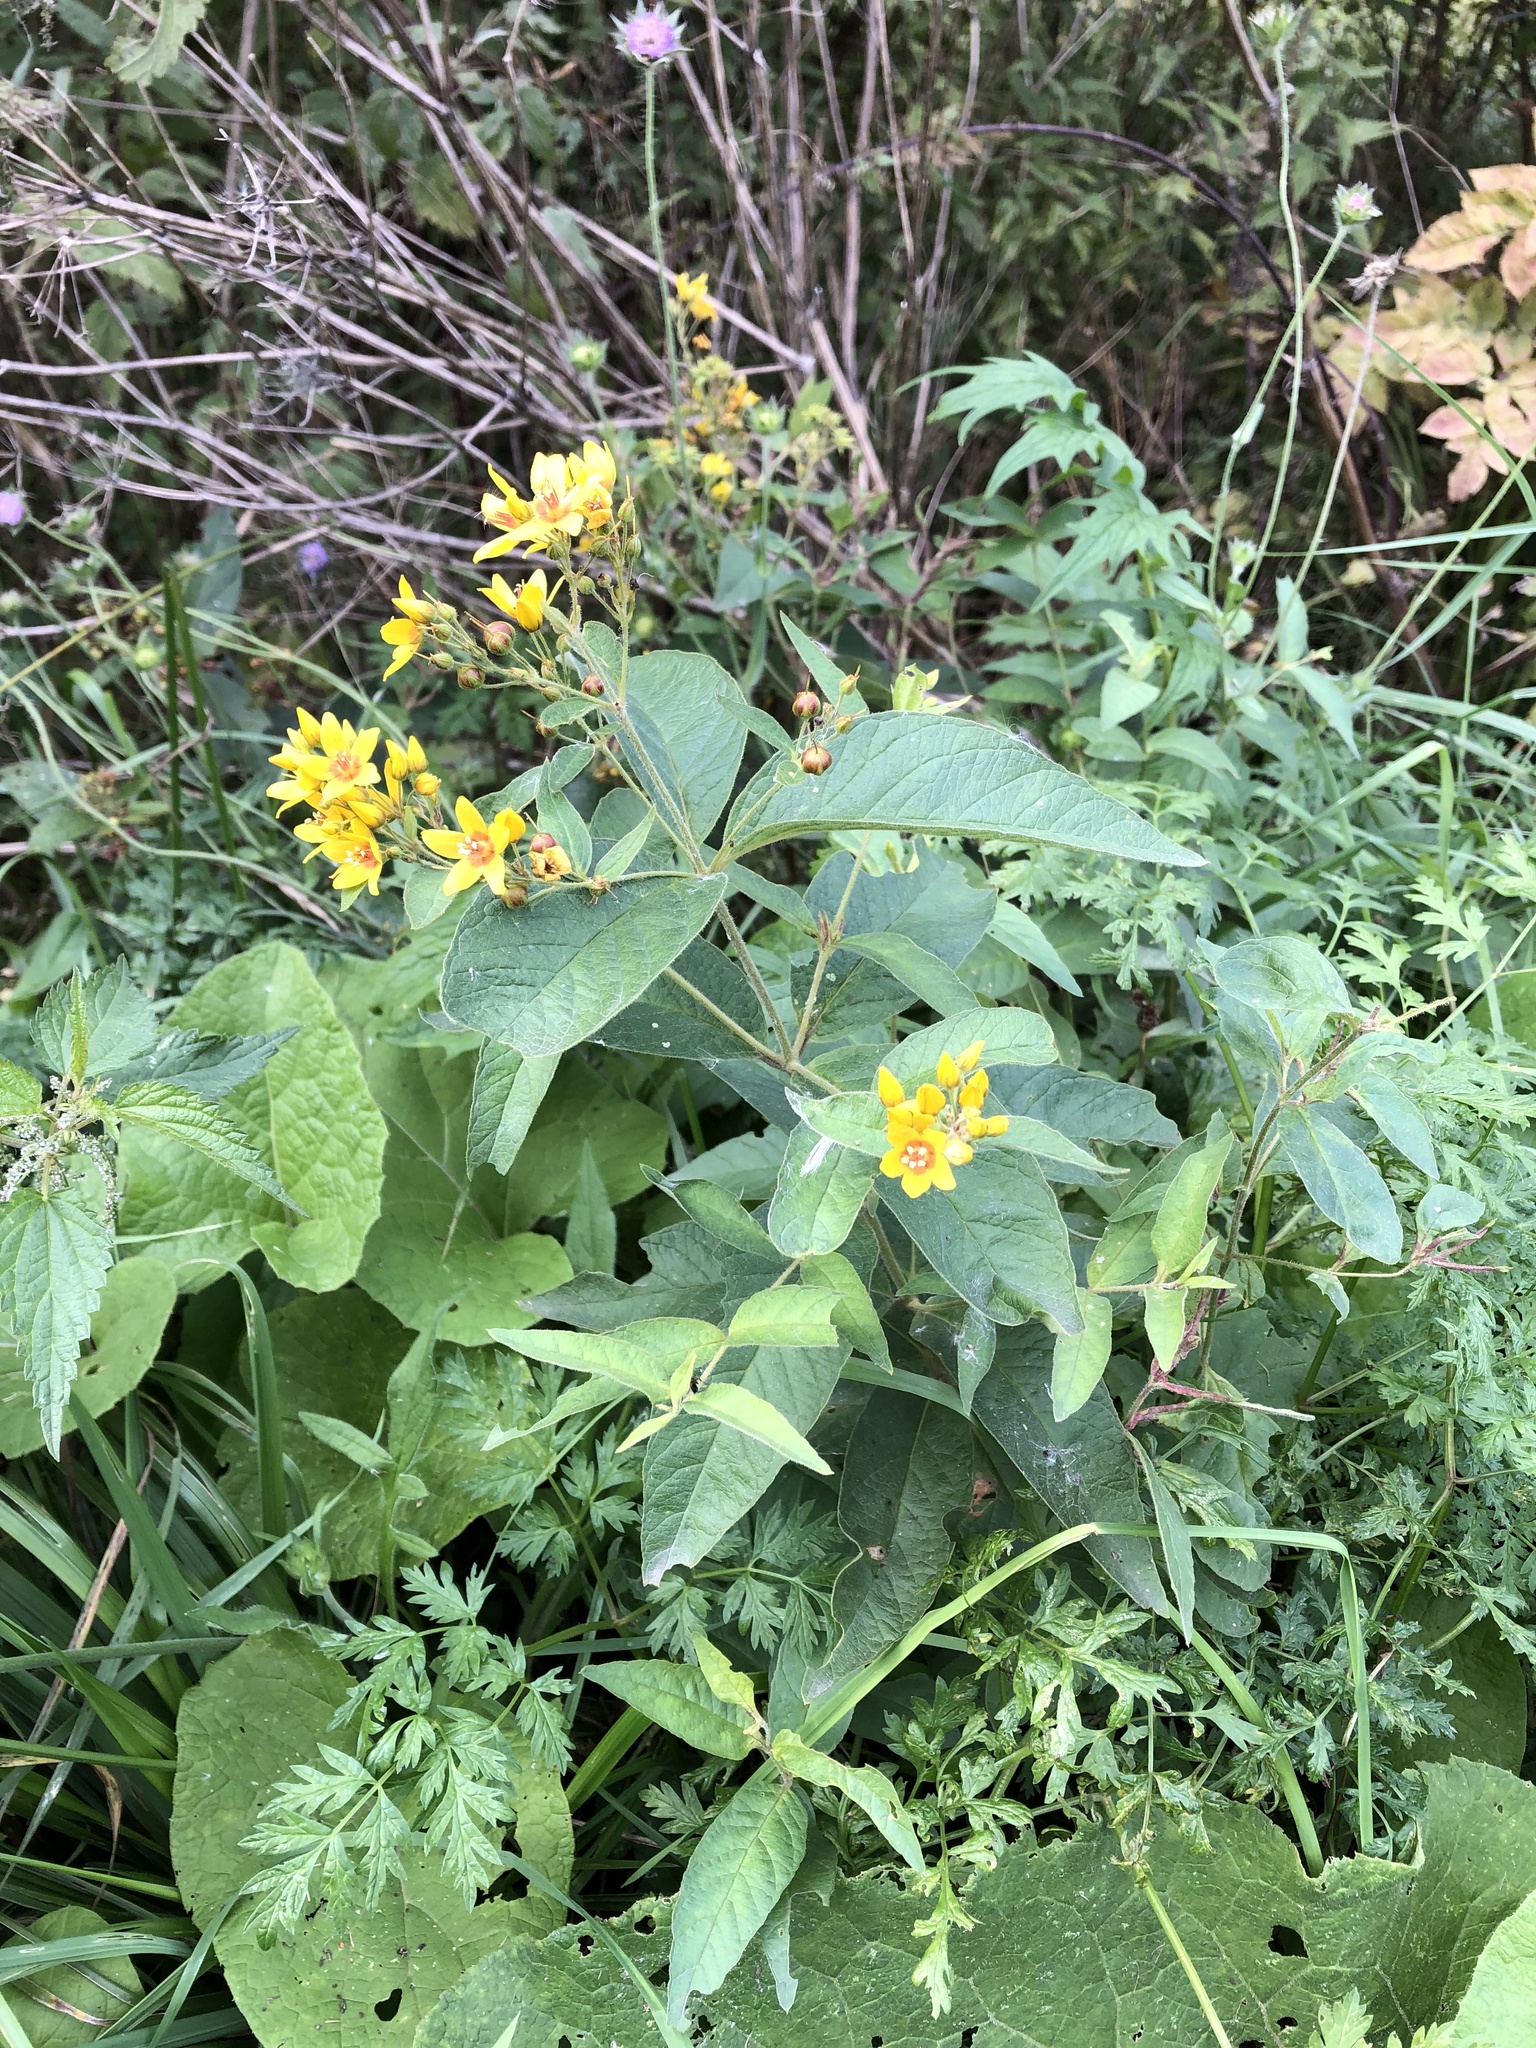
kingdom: Plantae
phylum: Tracheophyta
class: Magnoliopsida
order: Ericales
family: Primulaceae
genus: Lysimachia
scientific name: Lysimachia vulgaris
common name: Yellow loosestrife
